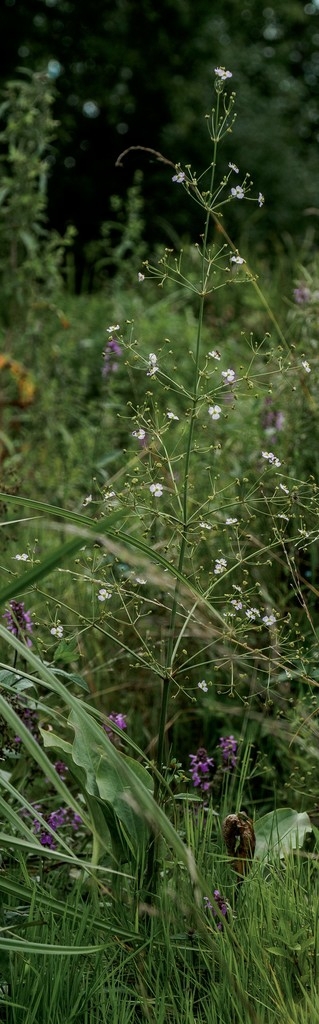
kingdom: Plantae
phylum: Tracheophyta
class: Liliopsida
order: Alismatales
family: Alismataceae
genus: Alisma
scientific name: Alisma plantago-aquatica
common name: Water-plantain
